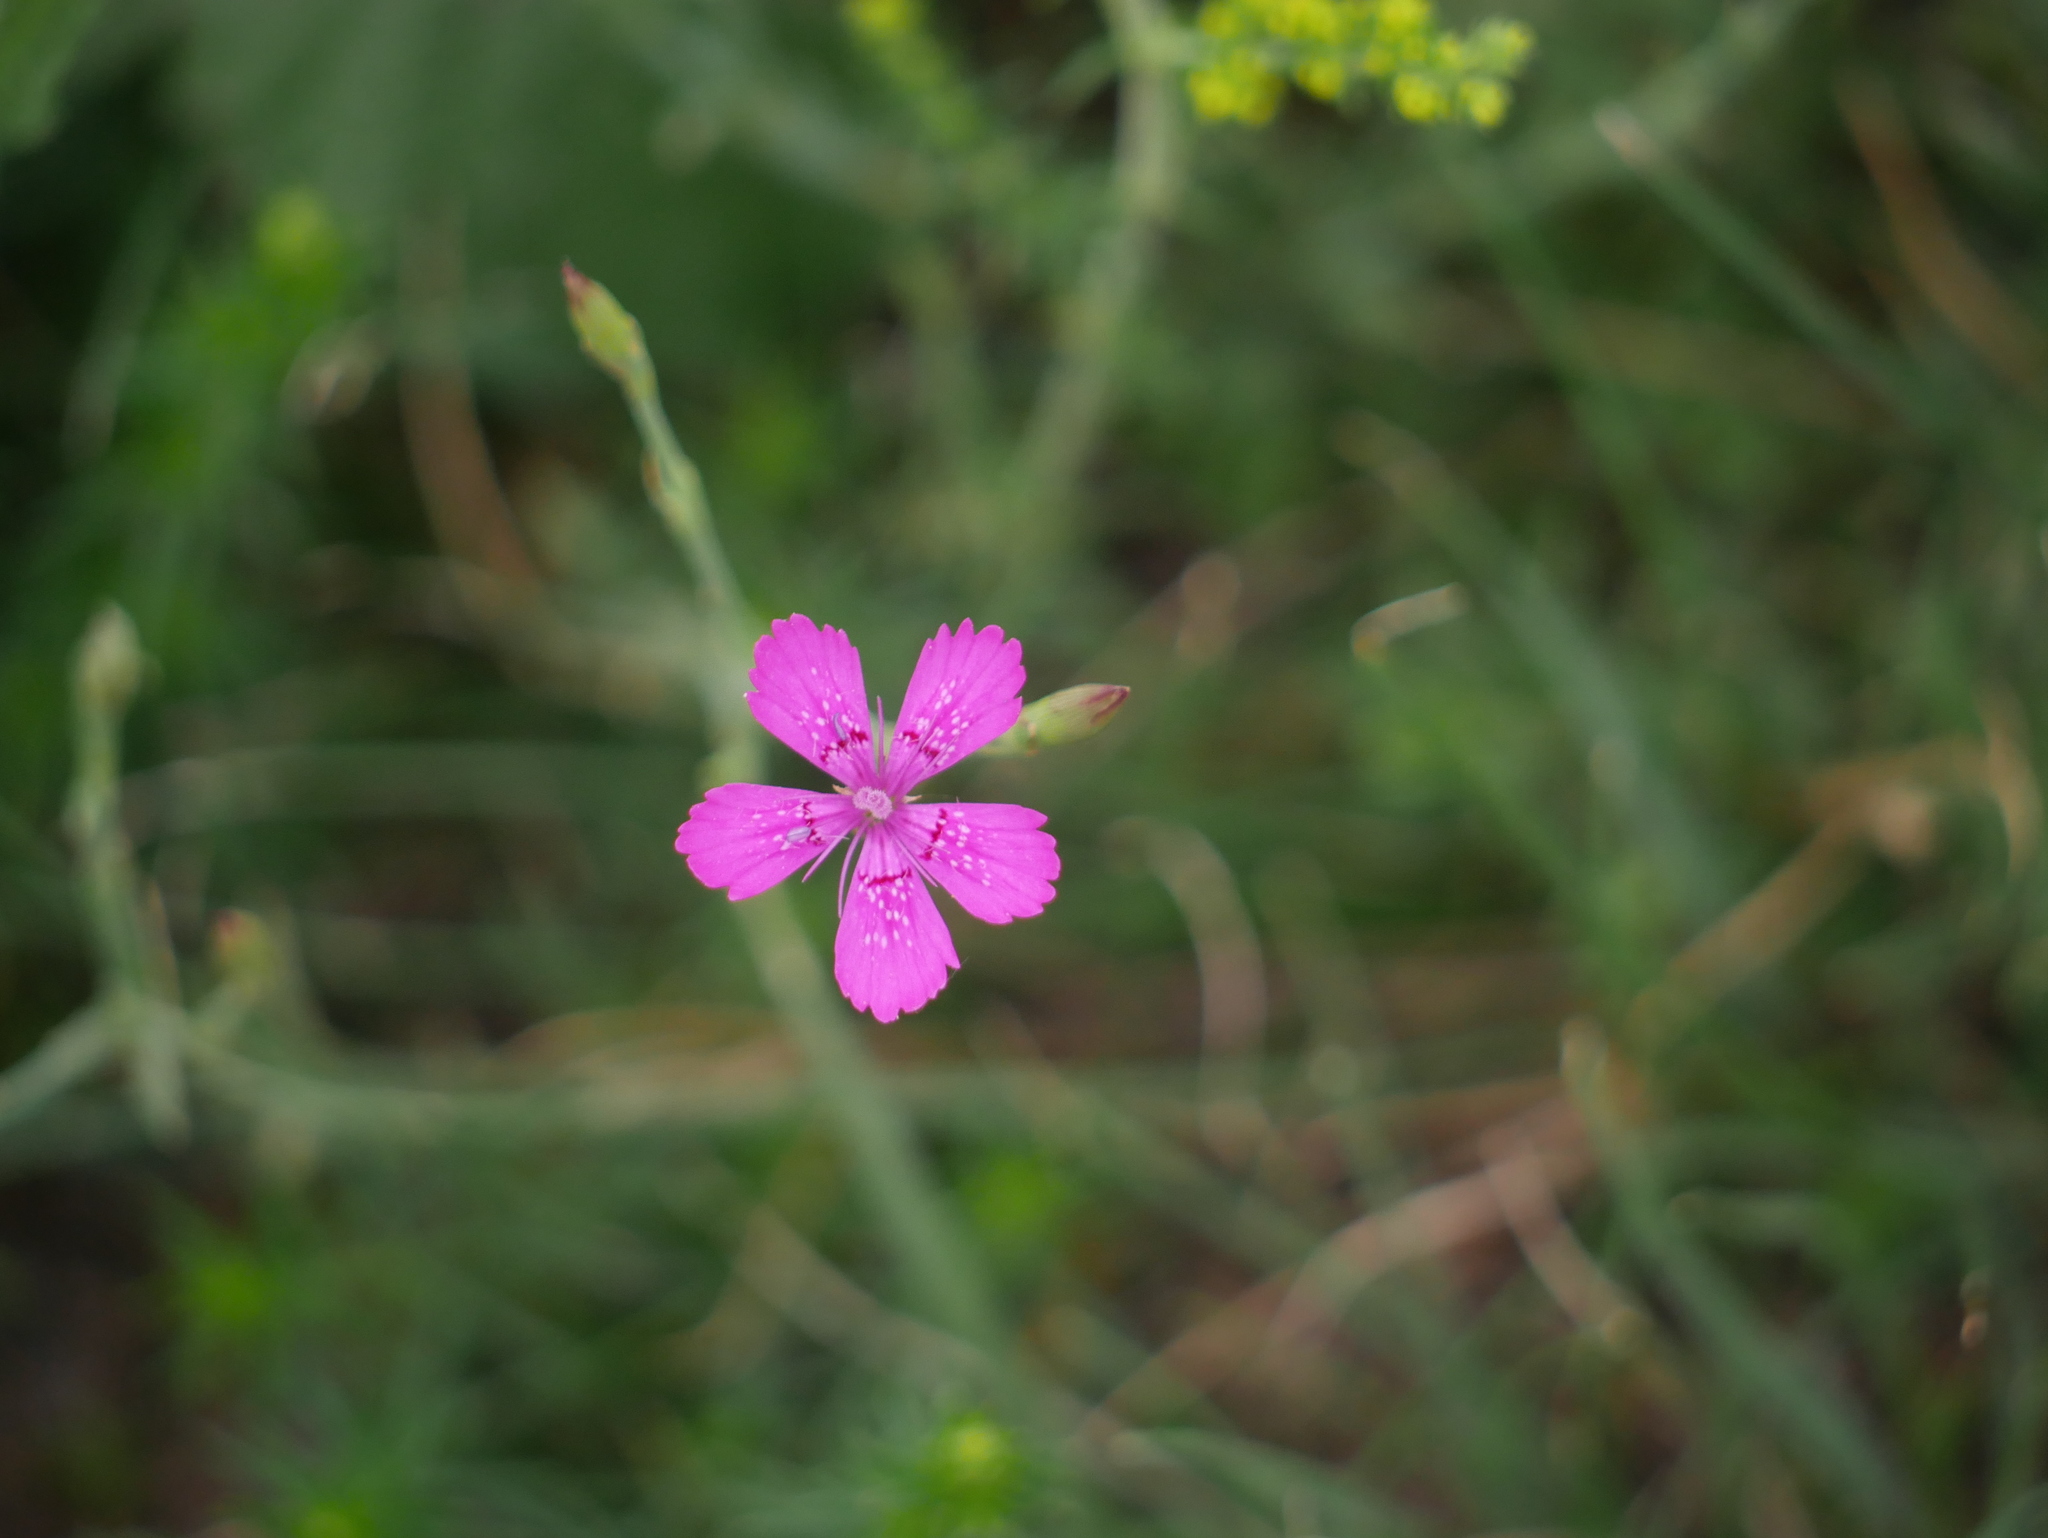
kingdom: Plantae
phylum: Tracheophyta
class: Magnoliopsida
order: Caryophyllales
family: Caryophyllaceae
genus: Dianthus
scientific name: Dianthus deltoides
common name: Maiden pink
